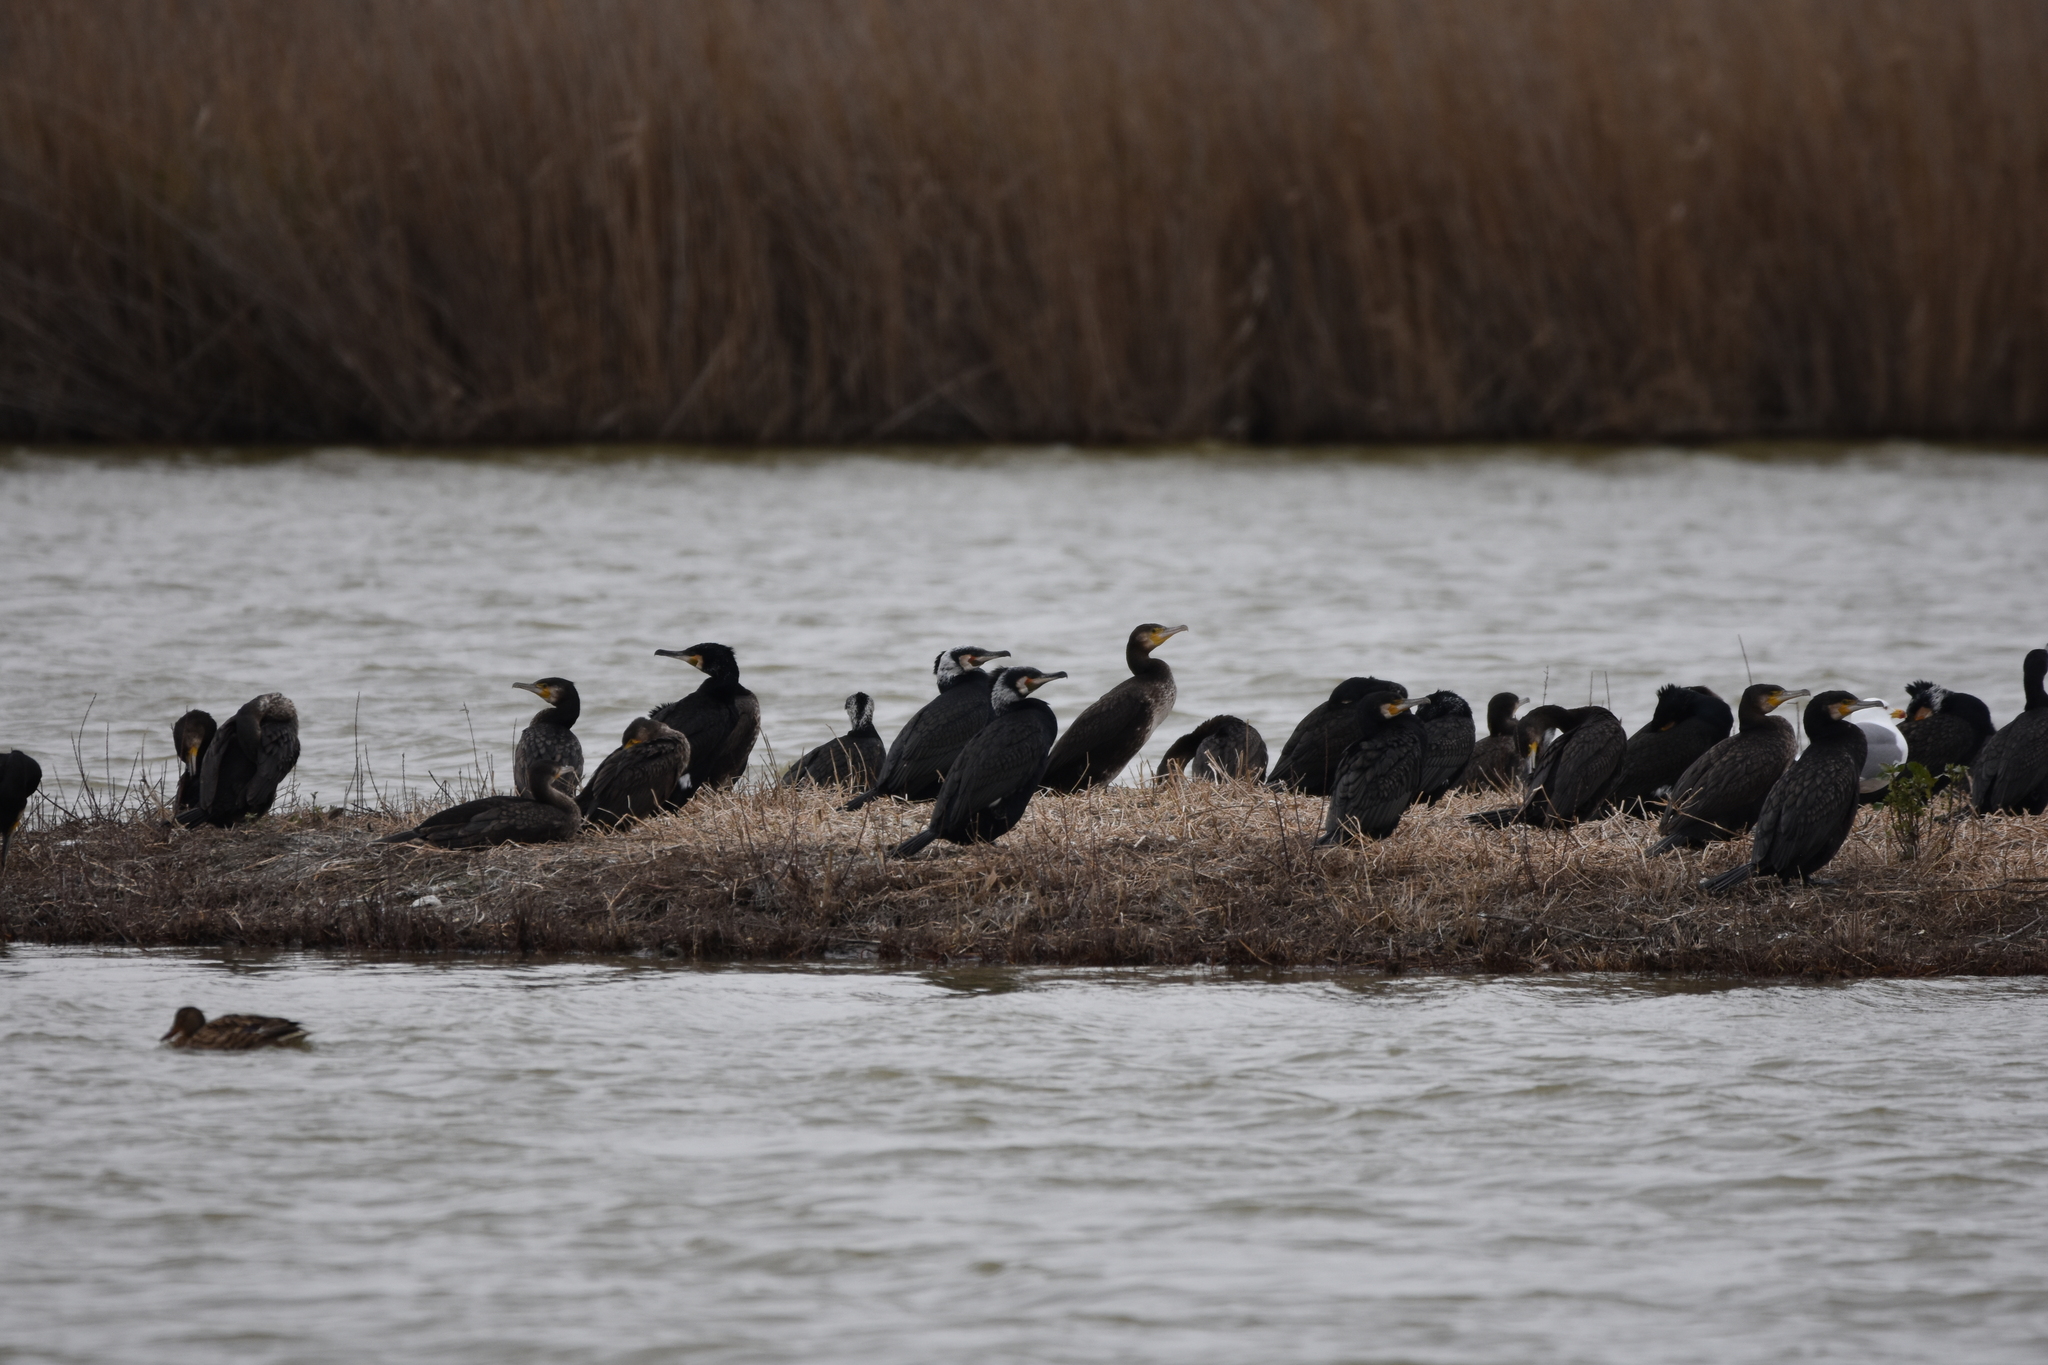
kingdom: Animalia
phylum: Chordata
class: Aves
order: Suliformes
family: Phalacrocoracidae
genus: Phalacrocorax
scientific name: Phalacrocorax carbo
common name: Great cormorant
